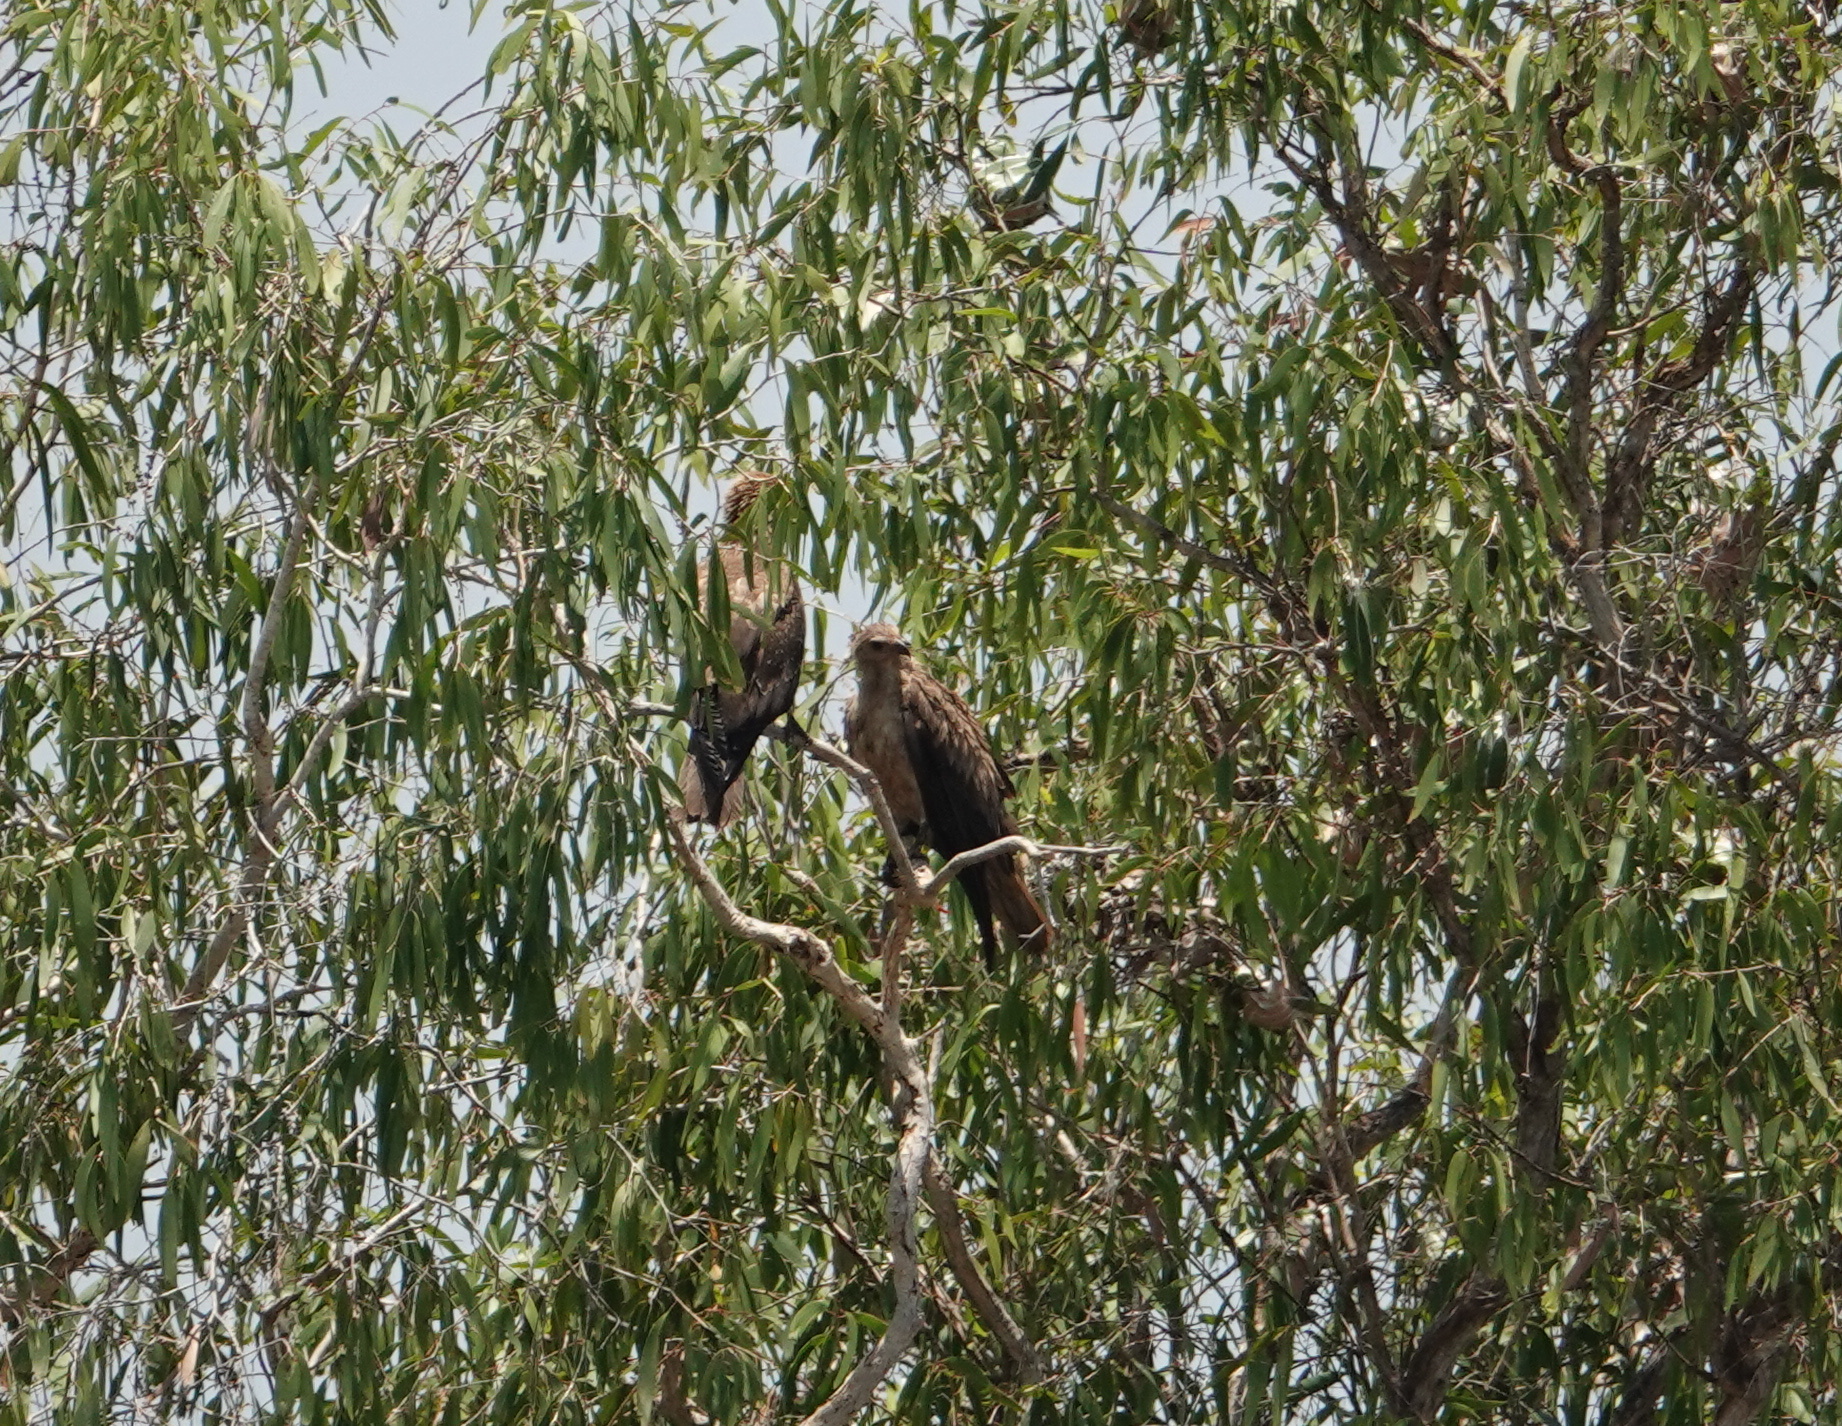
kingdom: Animalia
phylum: Chordata
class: Aves
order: Accipitriformes
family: Accipitridae
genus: Haliastur
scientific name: Haliastur sphenurus
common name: Whistling kite
